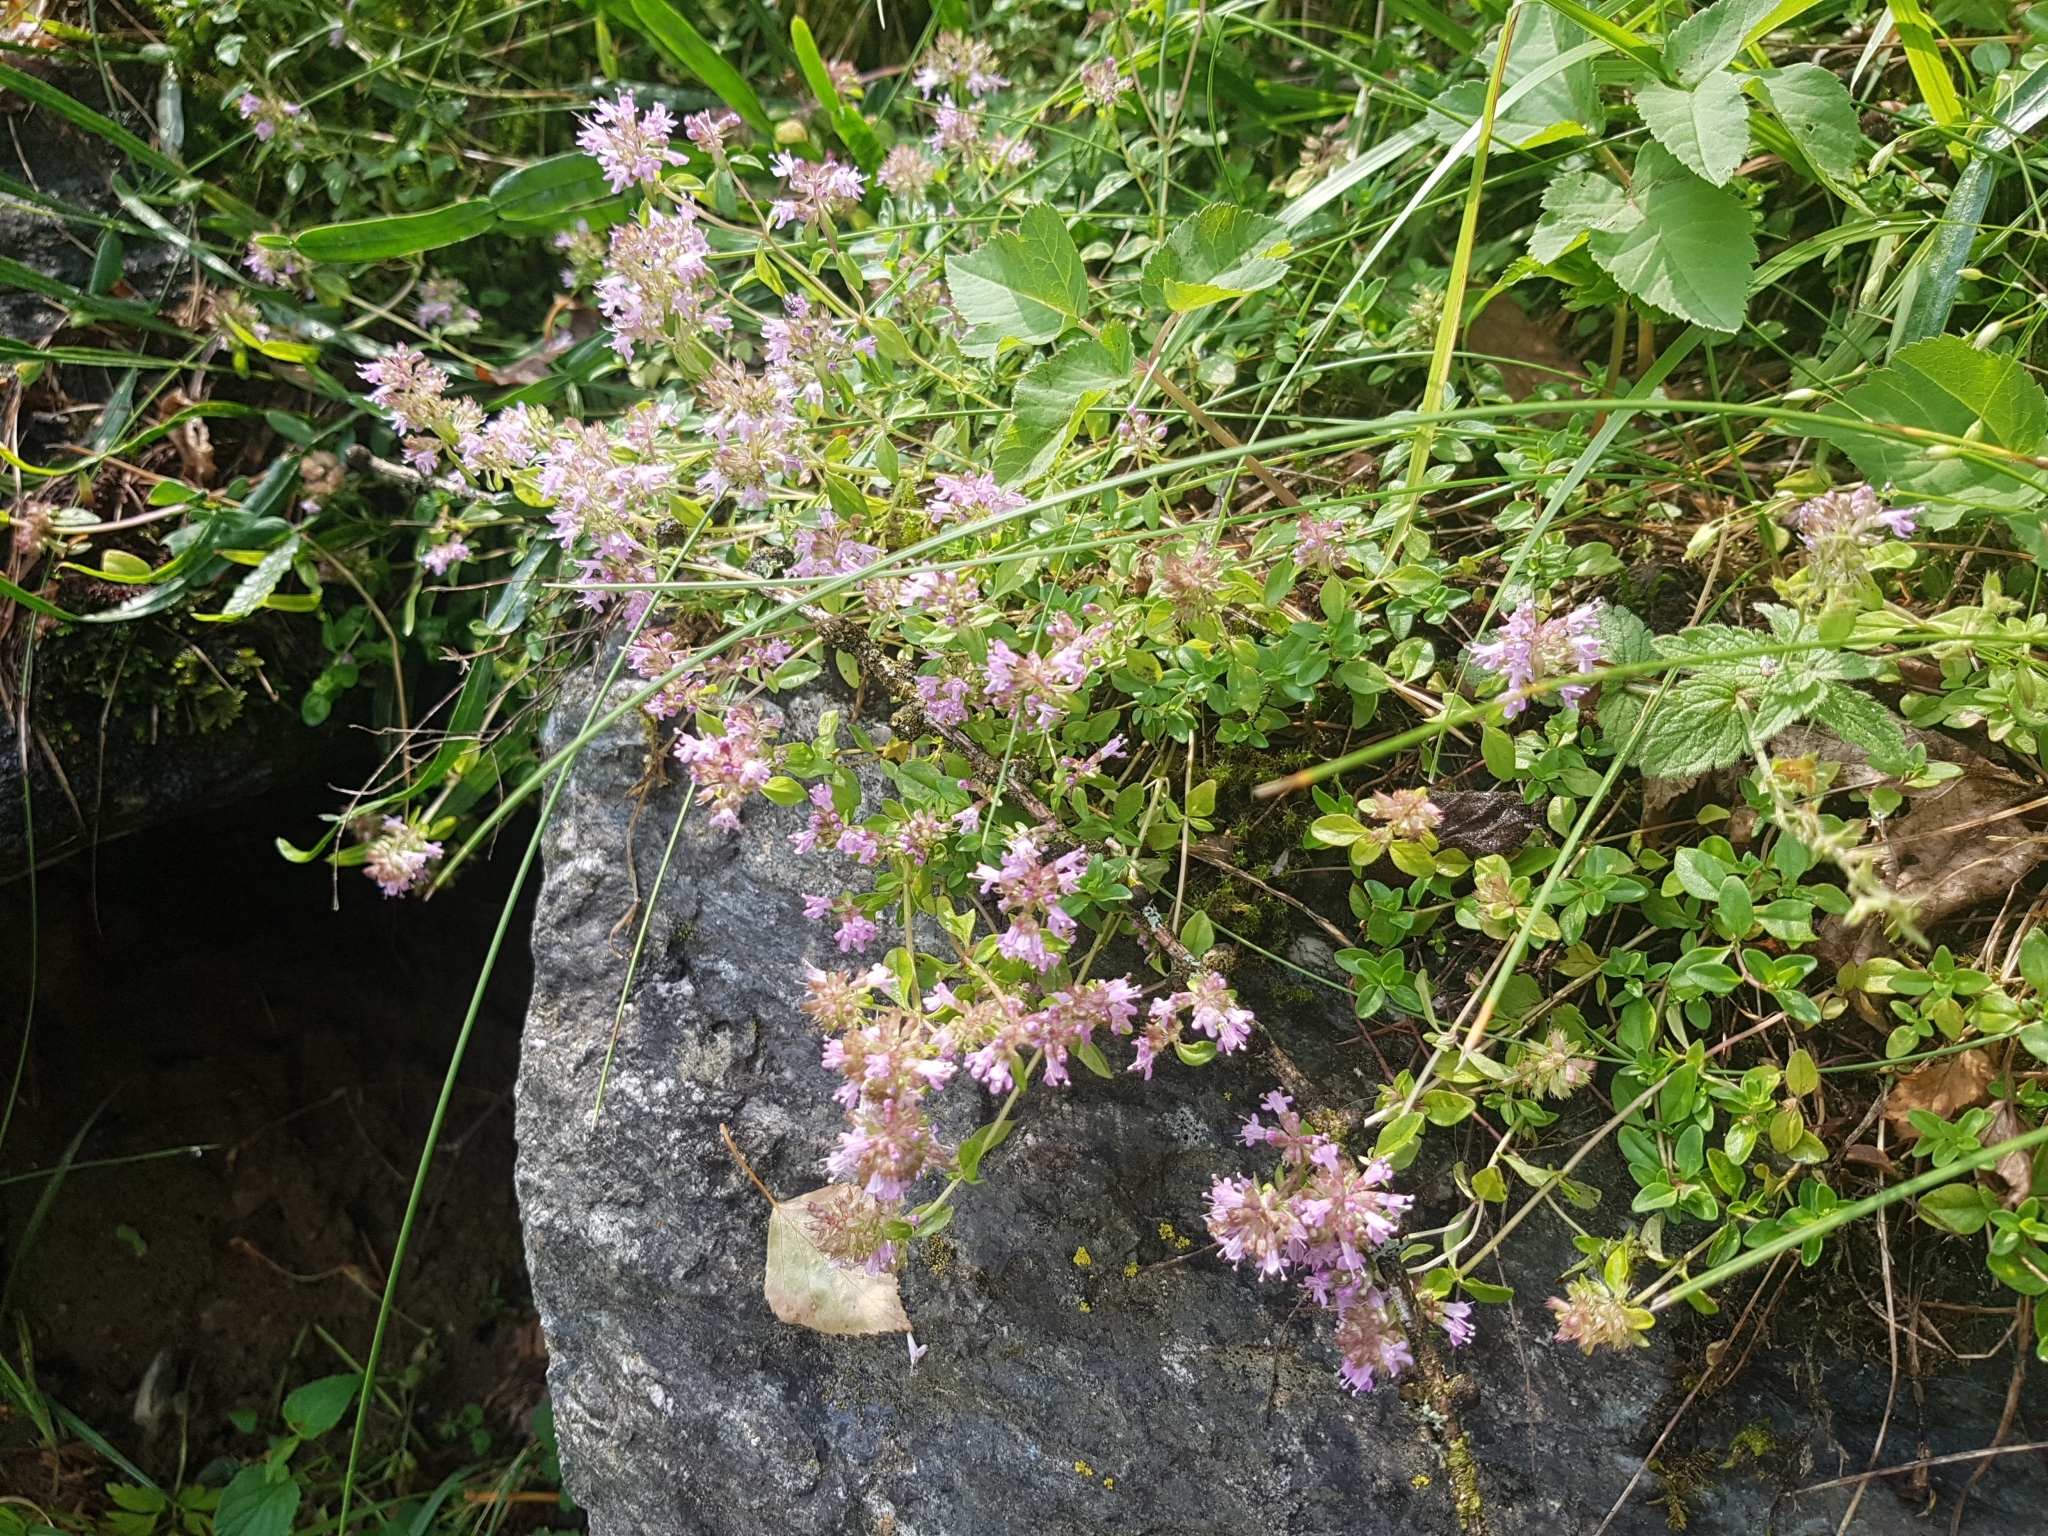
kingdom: Plantae
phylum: Tracheophyta
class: Magnoliopsida
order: Lamiales
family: Lamiaceae
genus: Thymus
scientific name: Thymus pulegioides
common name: Large thyme
